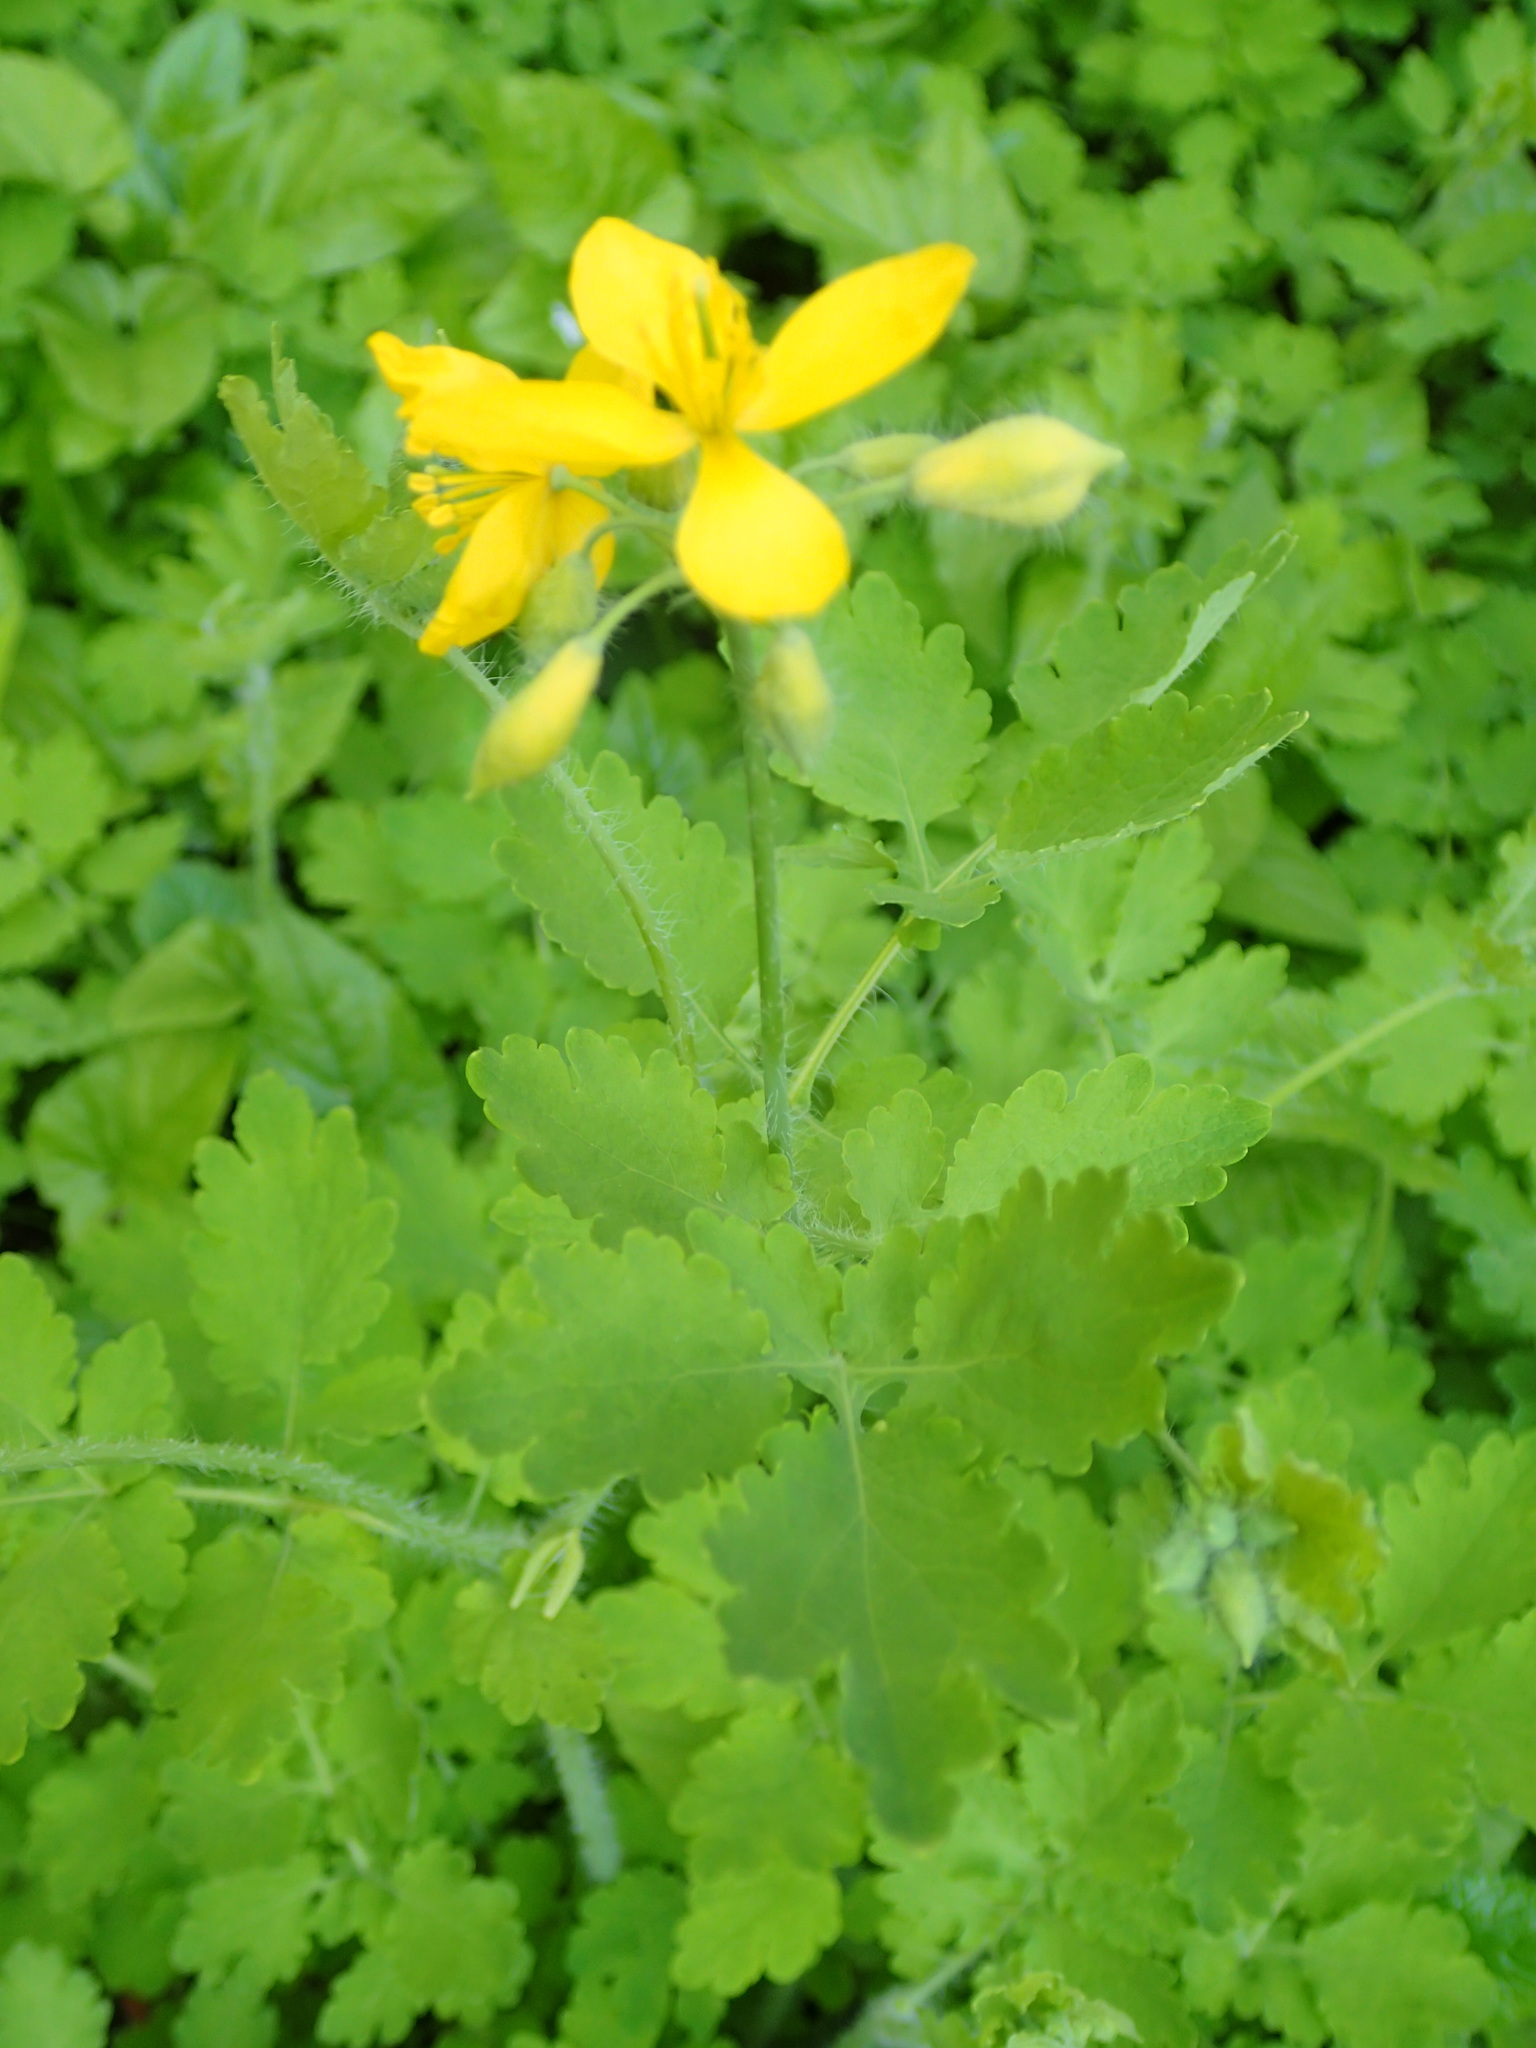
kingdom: Plantae
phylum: Tracheophyta
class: Magnoliopsida
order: Ranunculales
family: Papaveraceae
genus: Chelidonium
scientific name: Chelidonium majus
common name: Greater celandine
